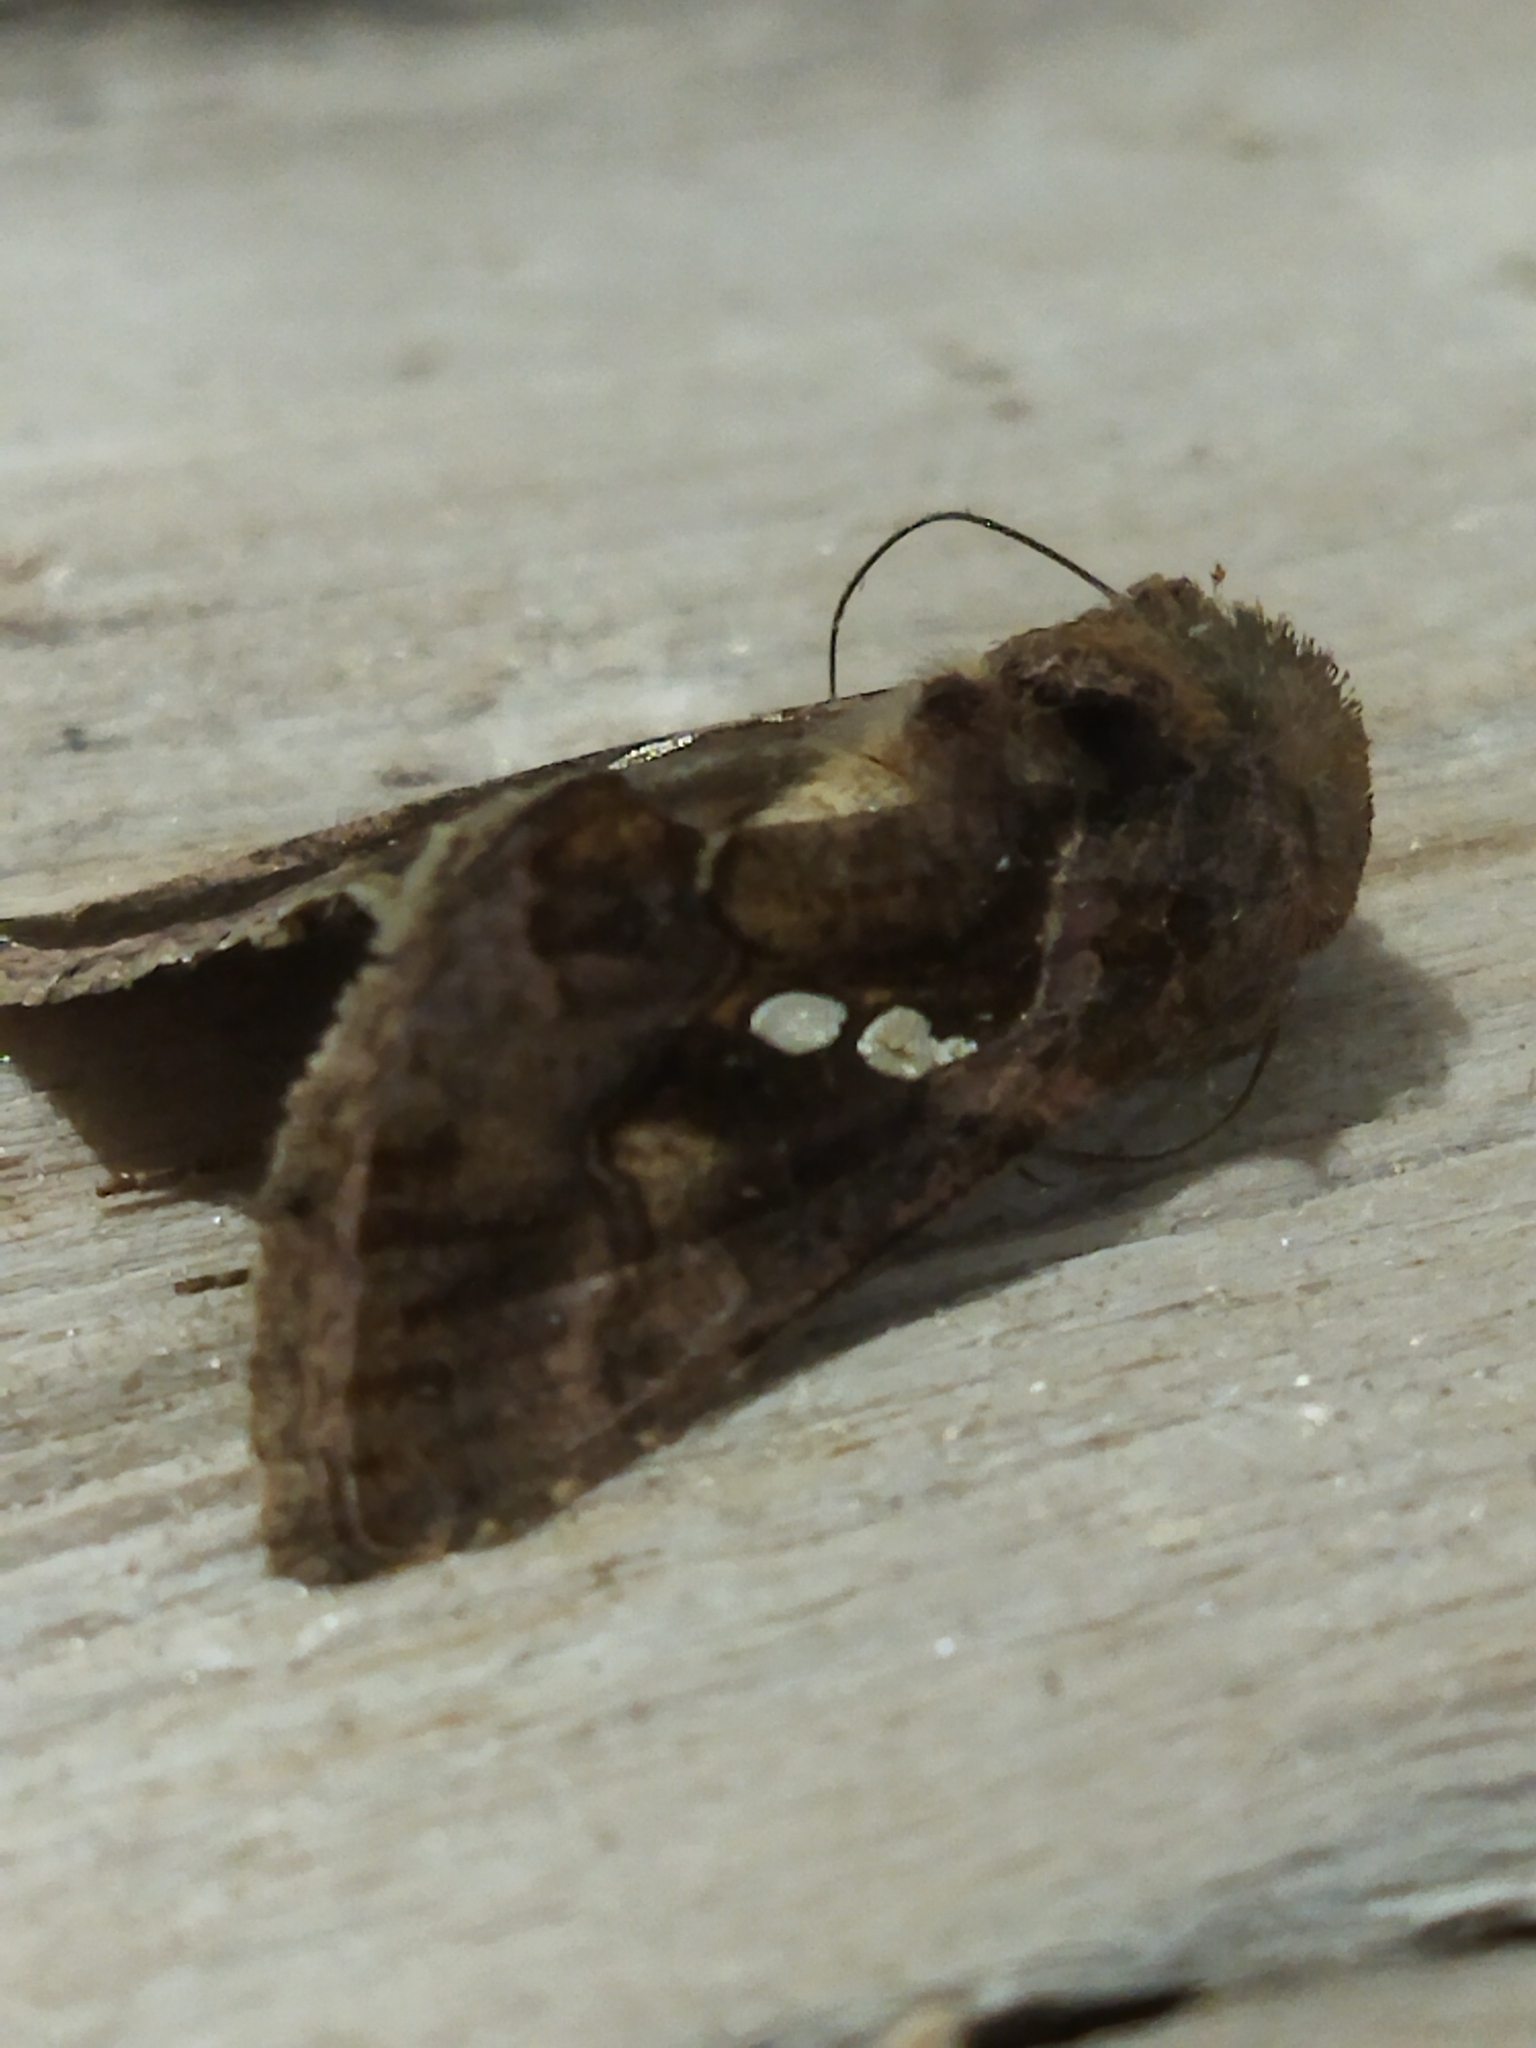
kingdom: Animalia
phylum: Arthropoda
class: Insecta
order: Lepidoptera
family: Noctuidae
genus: Chrysodeixis
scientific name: Chrysodeixis chalcites
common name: Golden twin-spot
